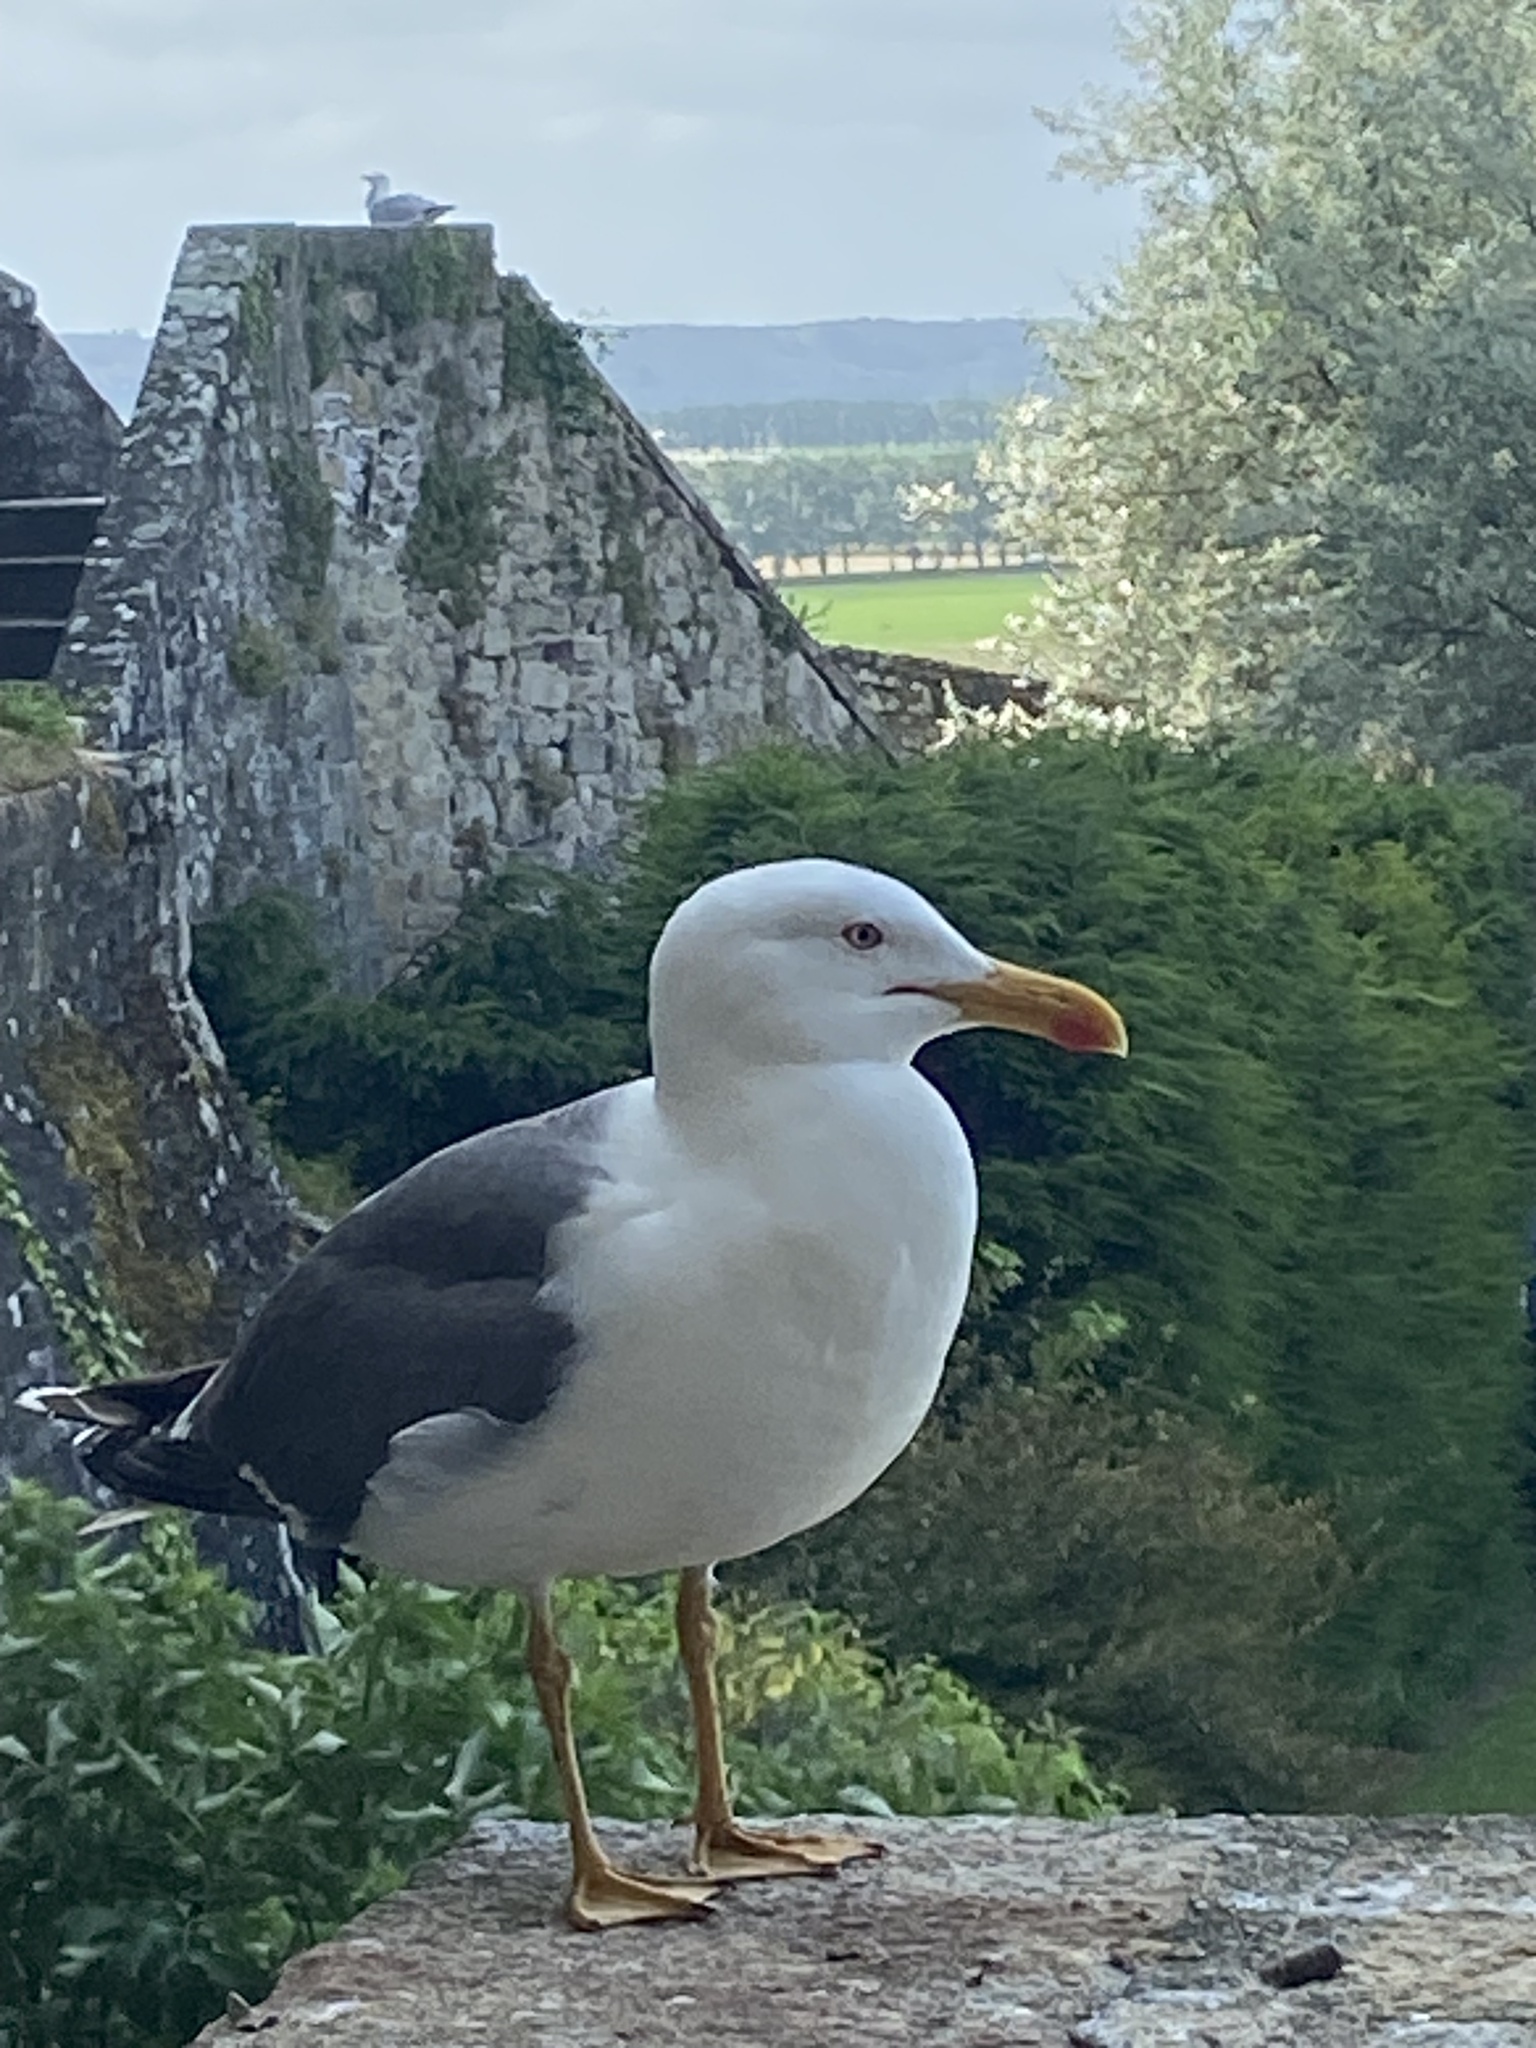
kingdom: Animalia
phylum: Chordata
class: Aves
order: Charadriiformes
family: Laridae
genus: Larus
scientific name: Larus fuscus
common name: Lesser black-backed gull
